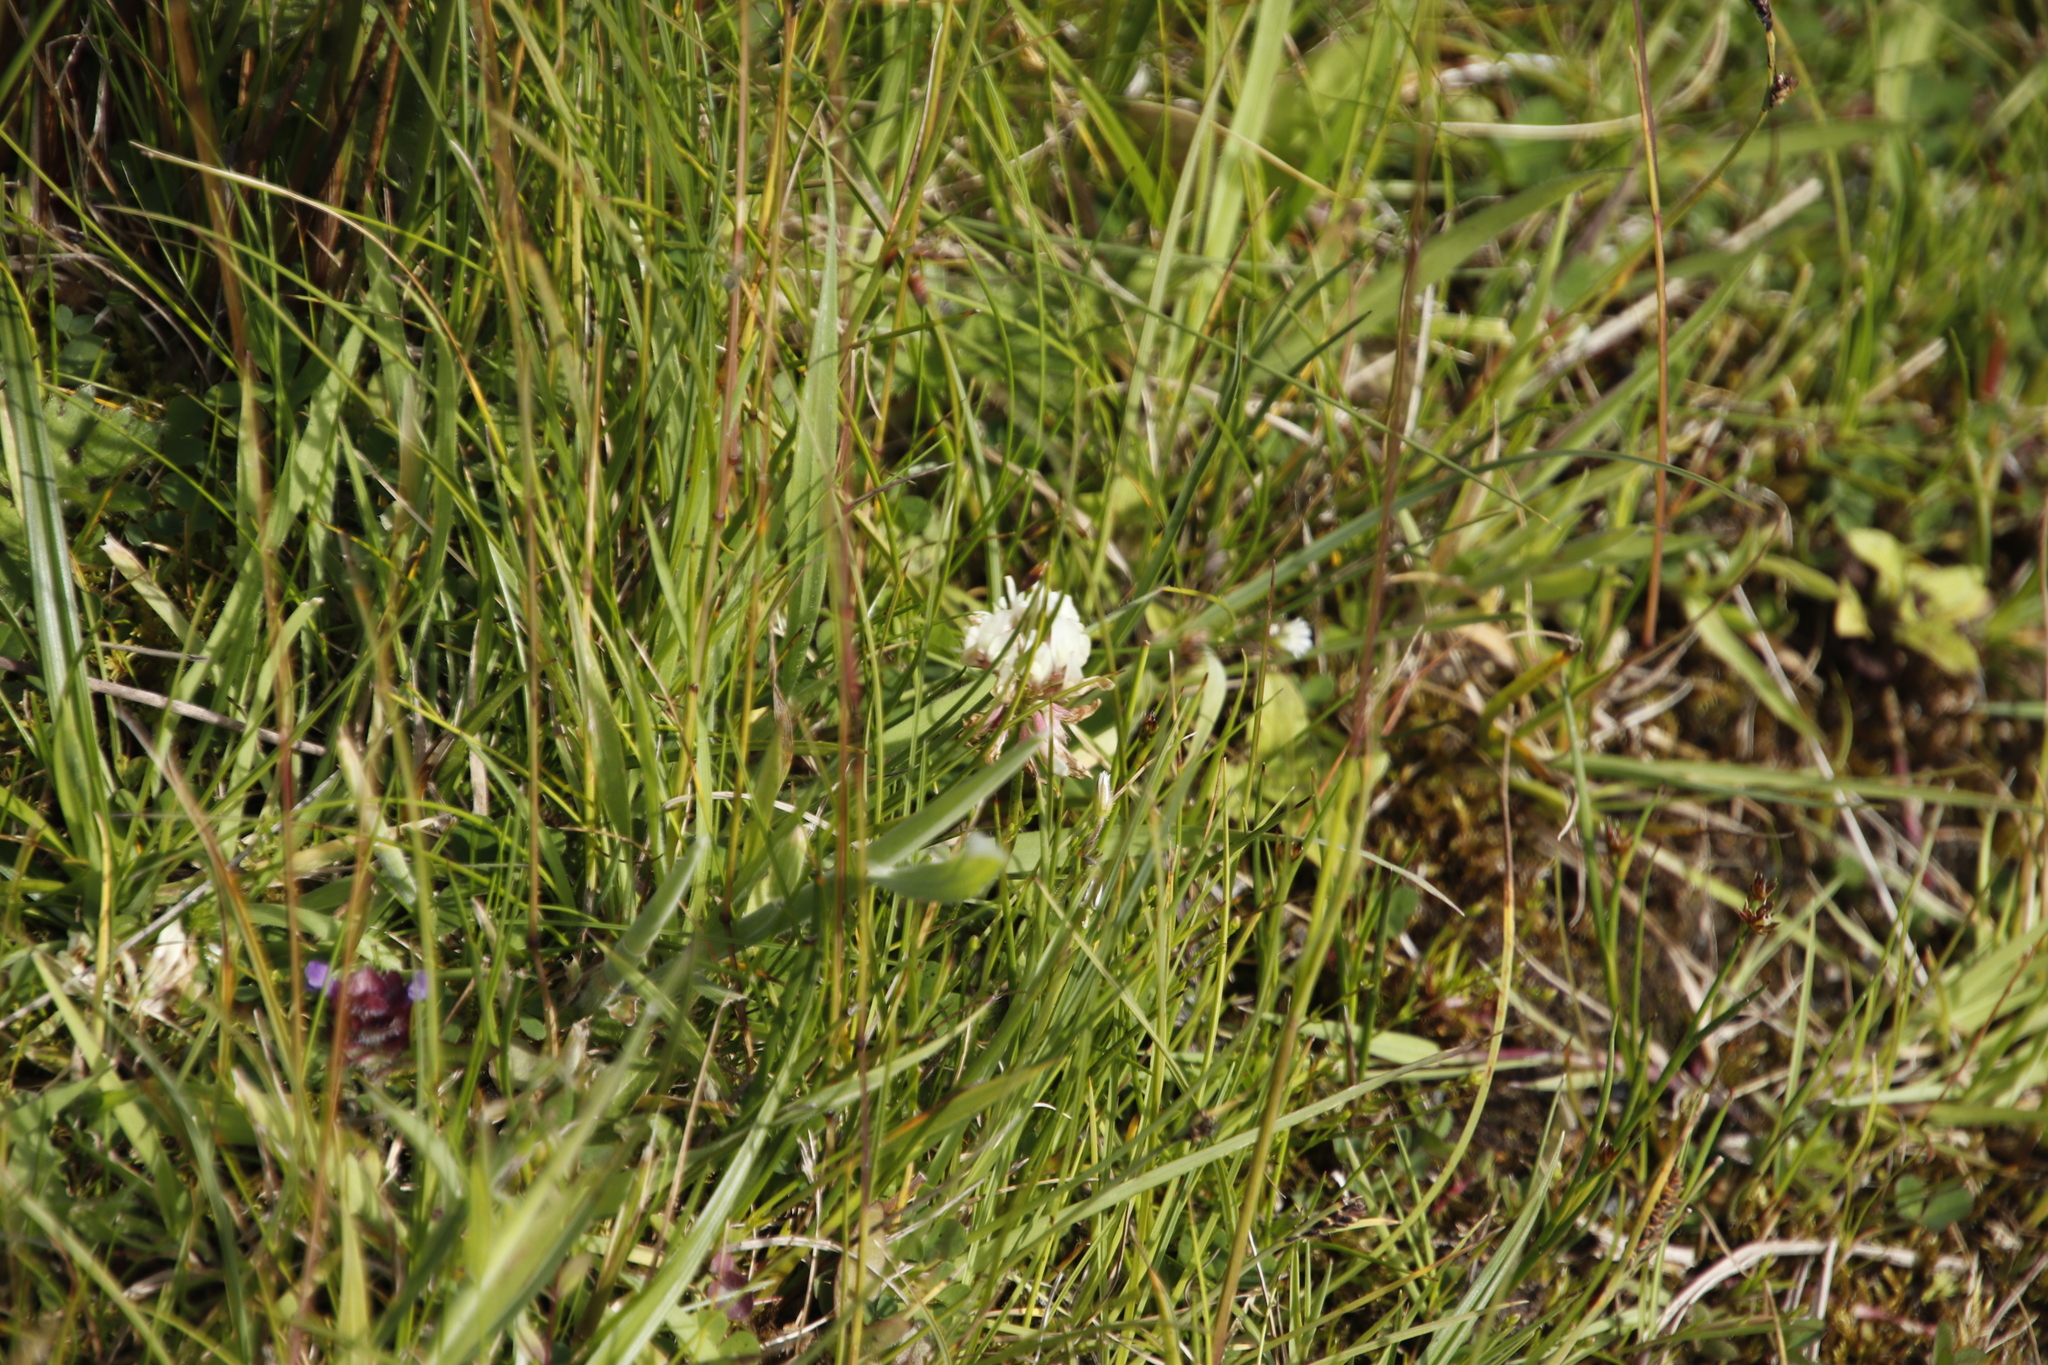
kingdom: Plantae
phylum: Tracheophyta
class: Magnoliopsida
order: Fabales
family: Fabaceae
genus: Trifolium
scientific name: Trifolium repens
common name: White clover
